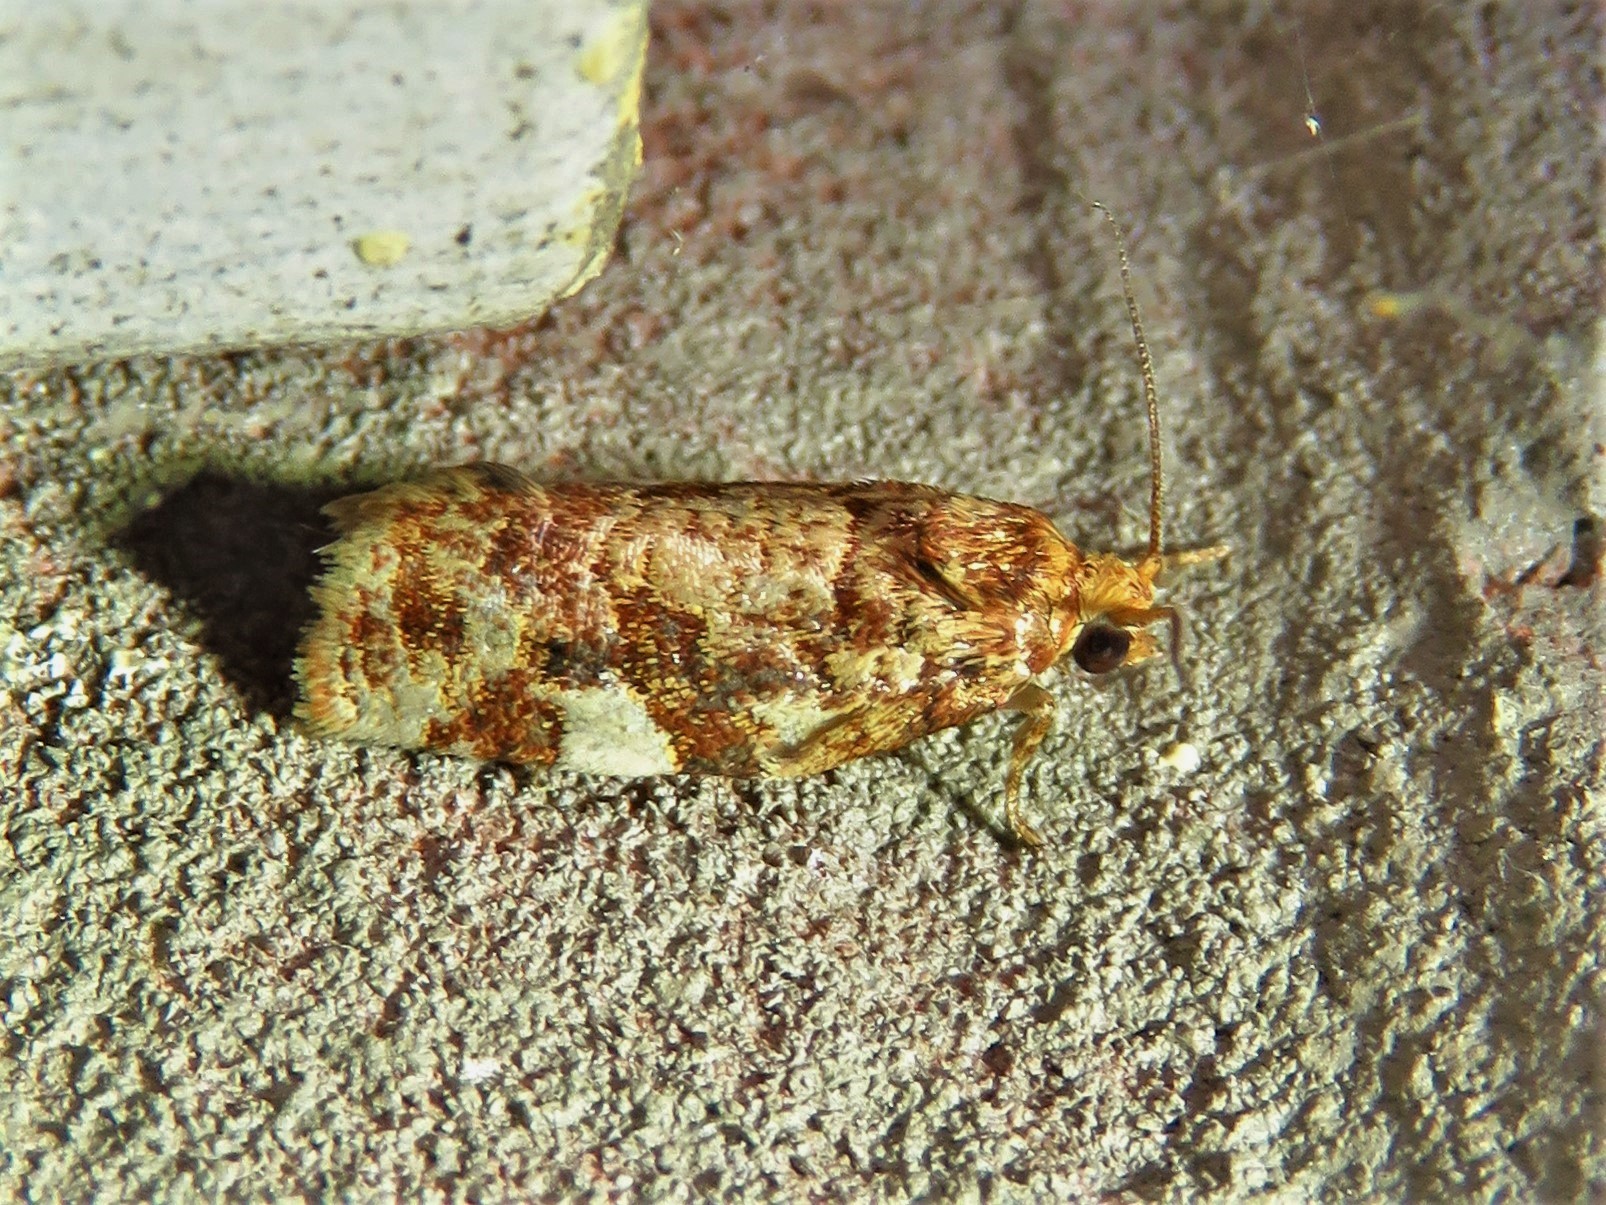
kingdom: Animalia
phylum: Arthropoda
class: Insecta
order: Lepidoptera
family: Tortricidae
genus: Archips
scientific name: Archips argyrospila
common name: Fruit-tree leafroller moth
